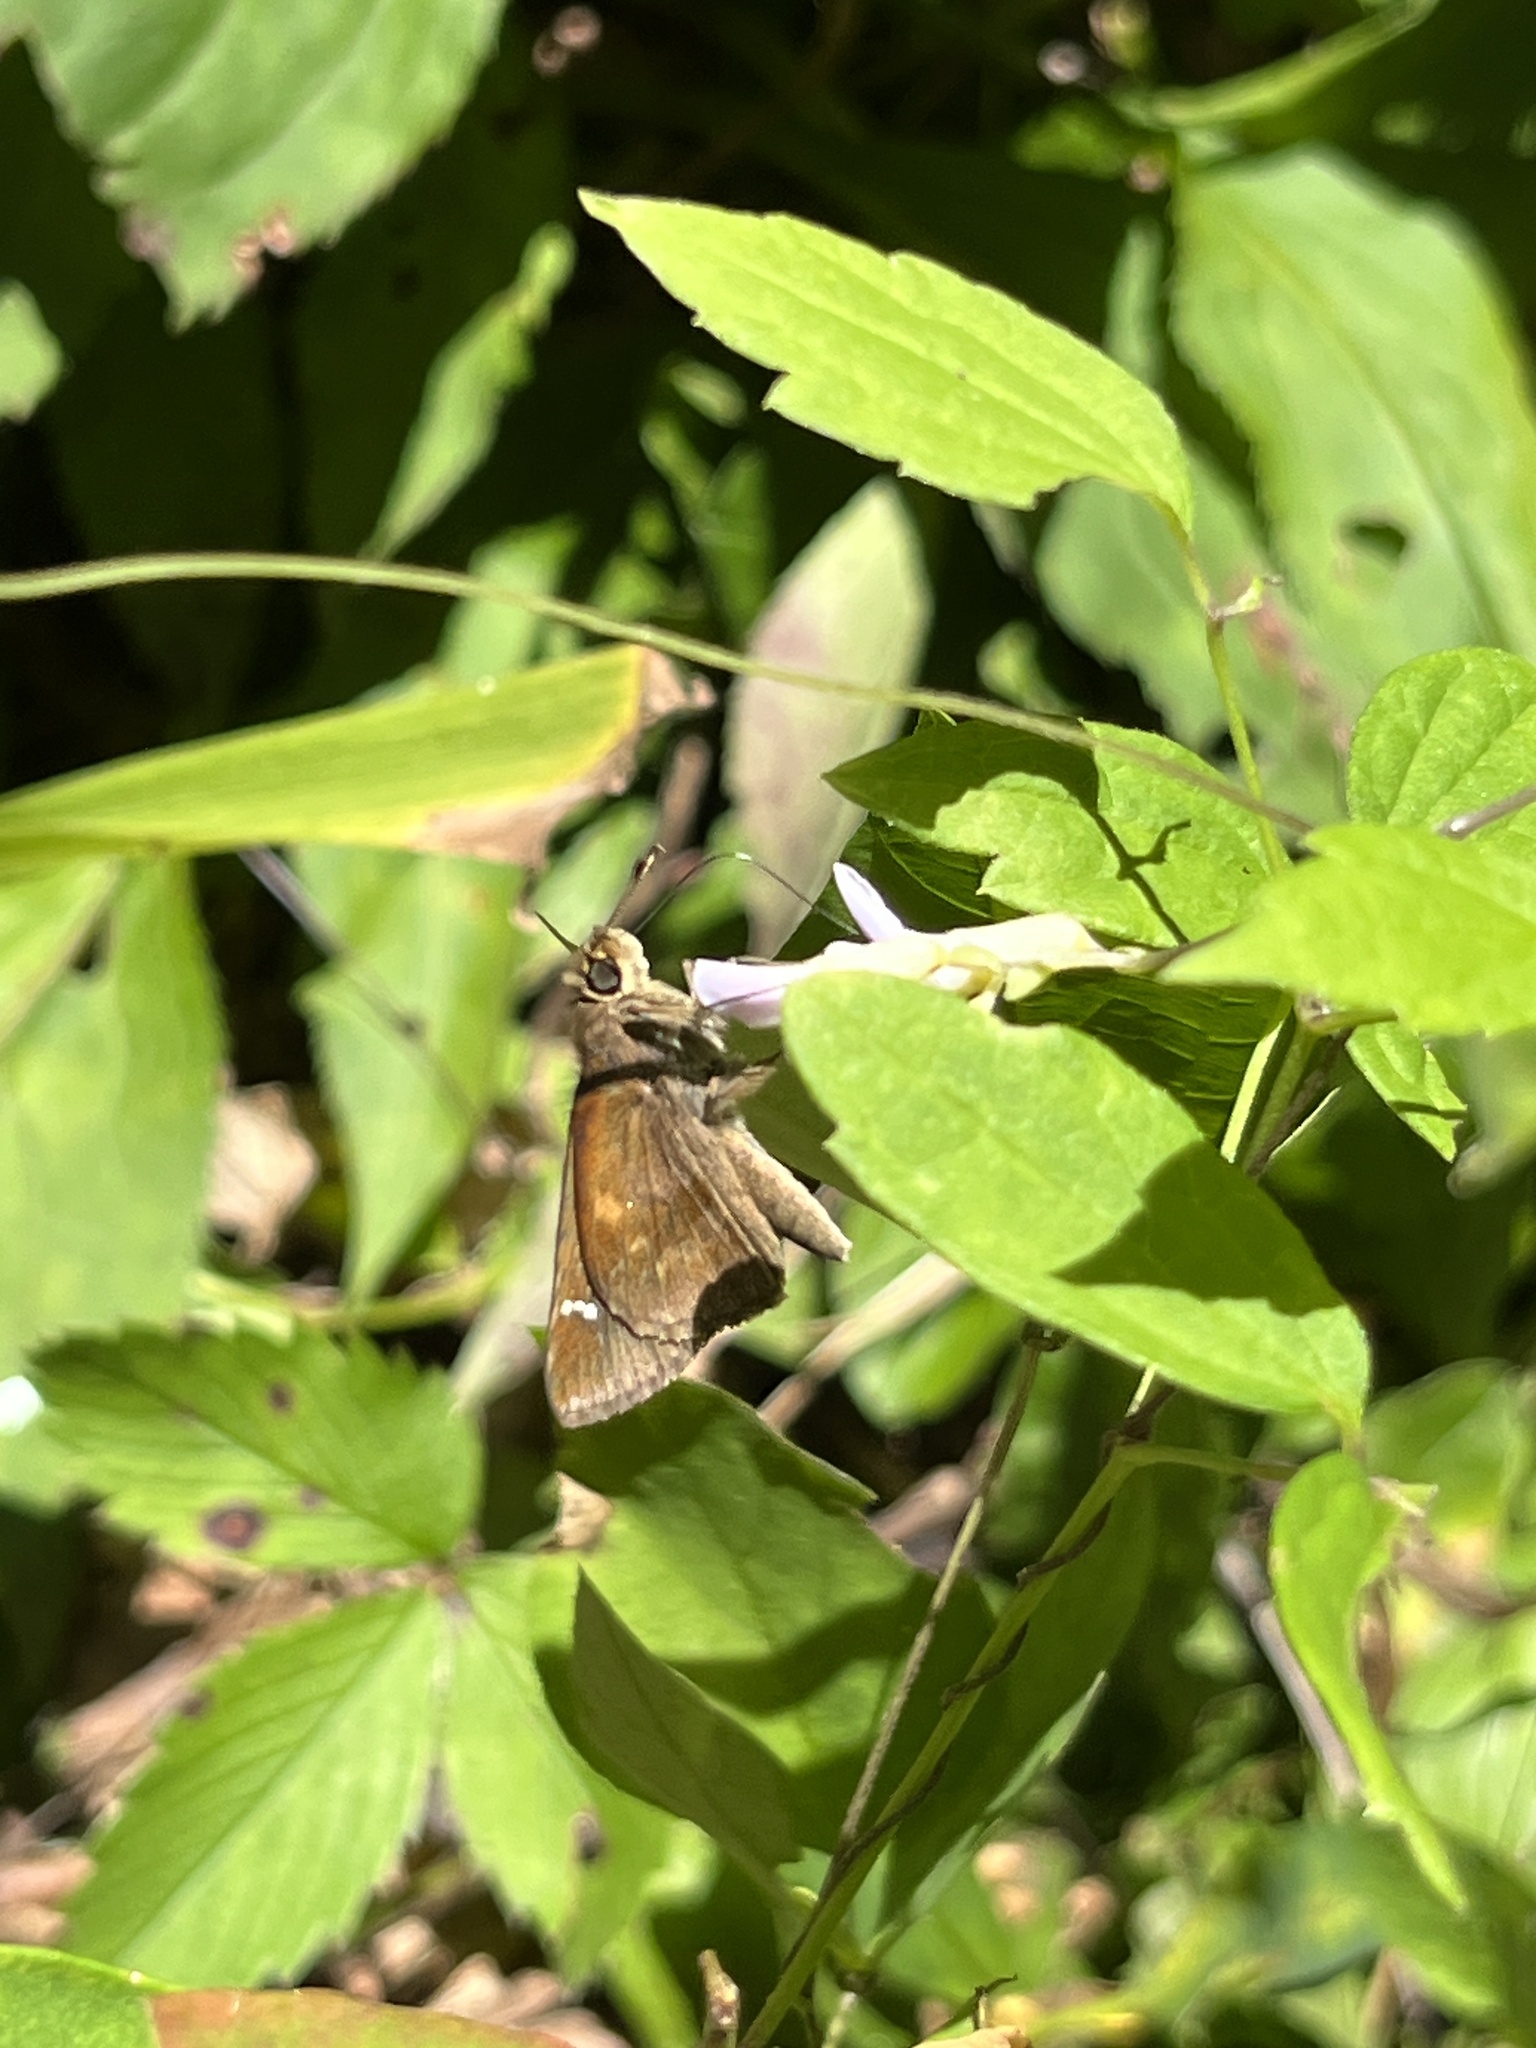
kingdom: Animalia
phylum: Arthropoda
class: Insecta
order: Lepidoptera
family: Hesperiidae
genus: Lerema
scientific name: Lerema accius
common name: Clouded skipper
